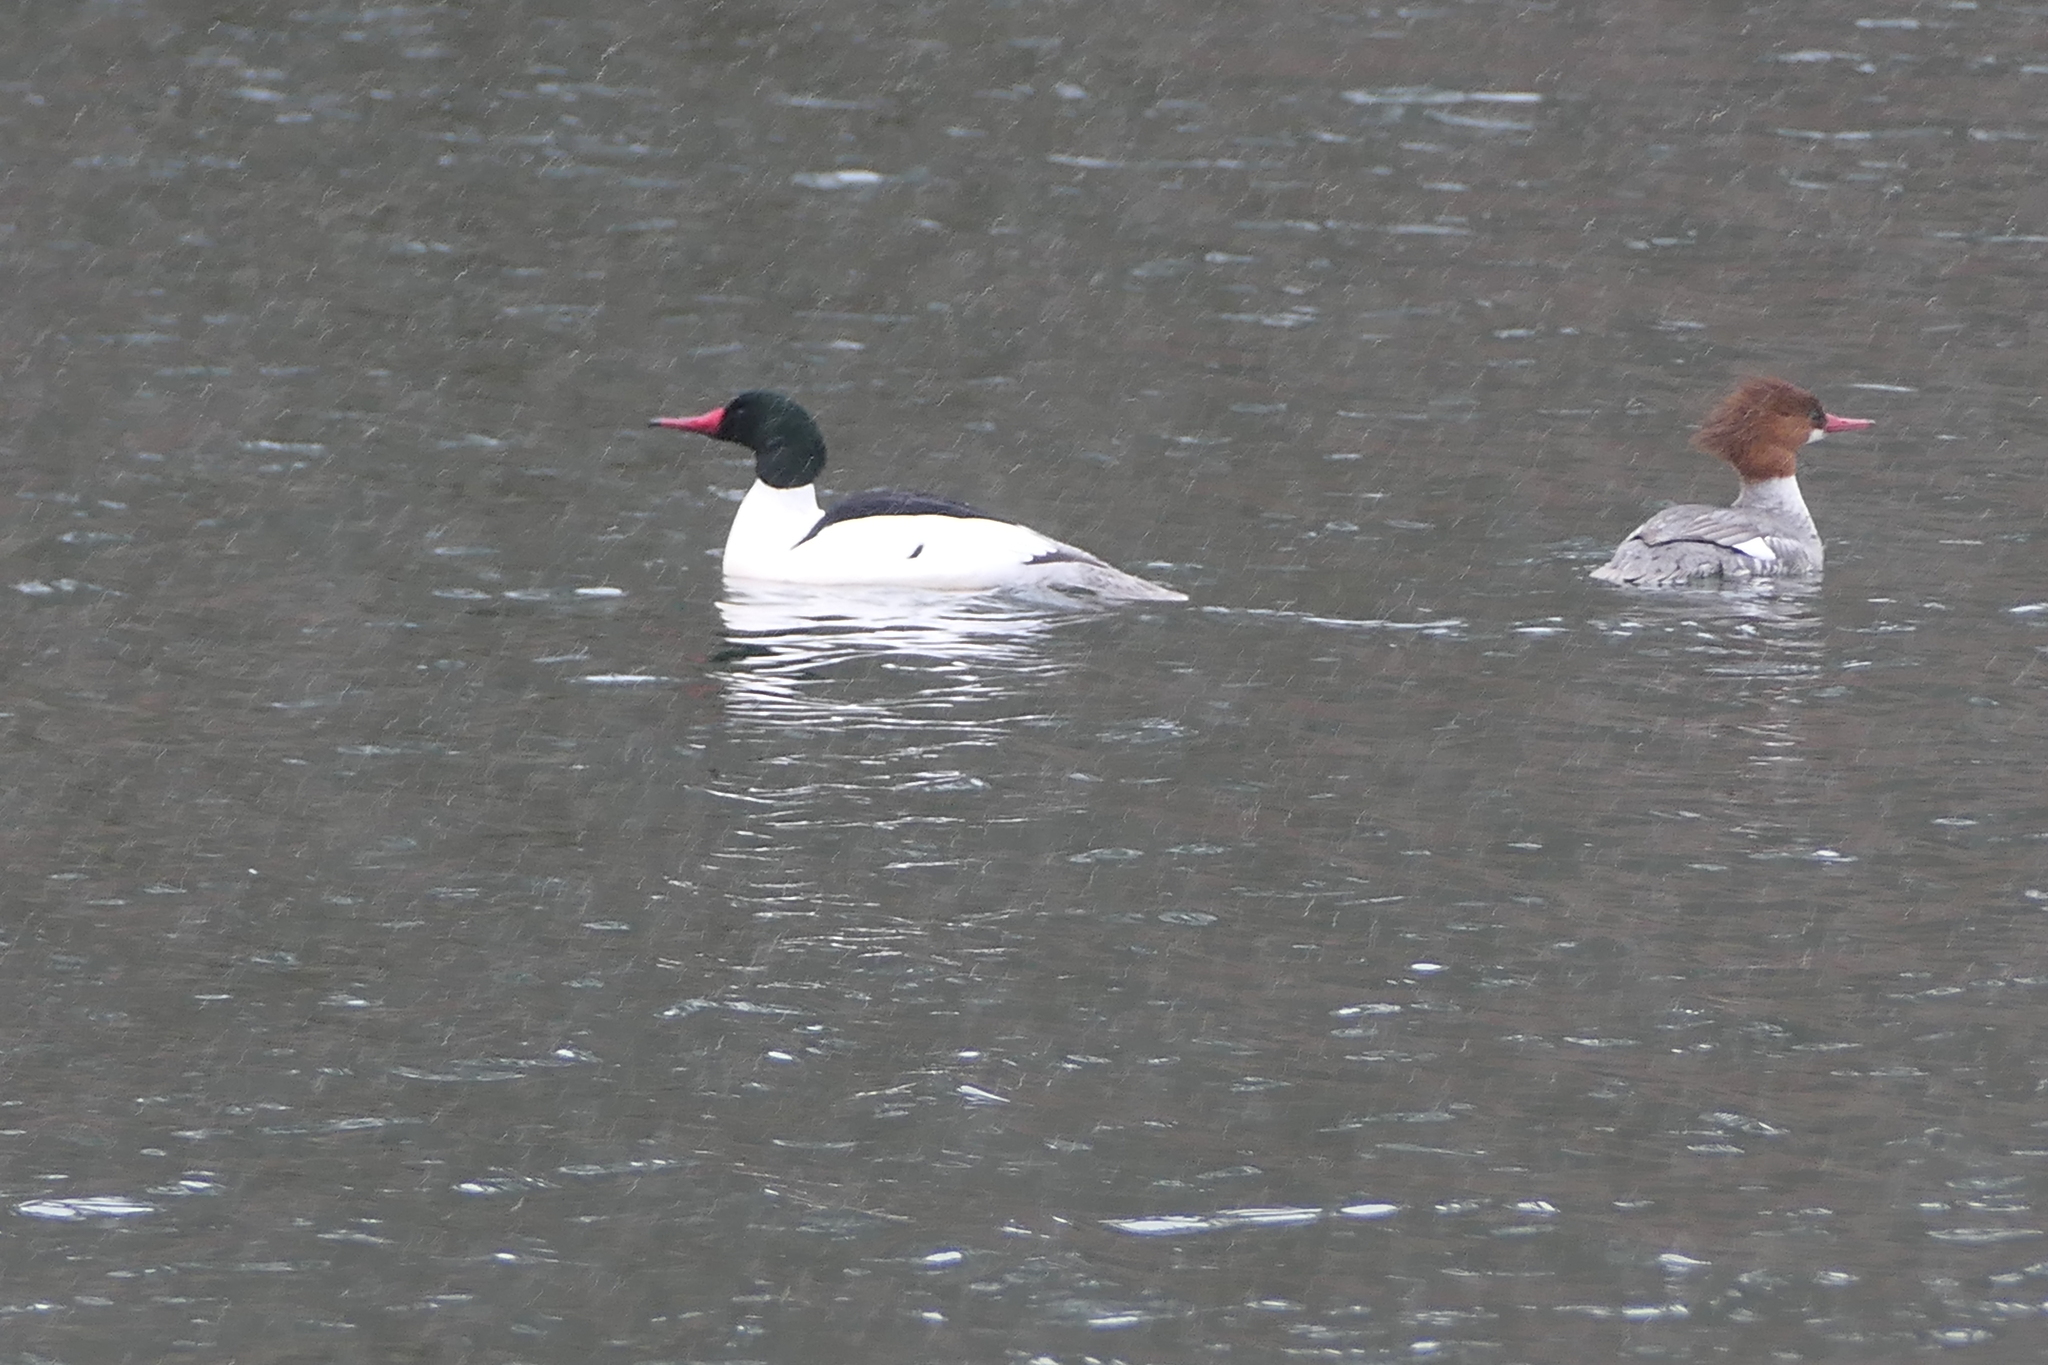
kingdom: Animalia
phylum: Chordata
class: Aves
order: Anseriformes
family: Anatidae
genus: Mergus
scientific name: Mergus merganser
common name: Common merganser
